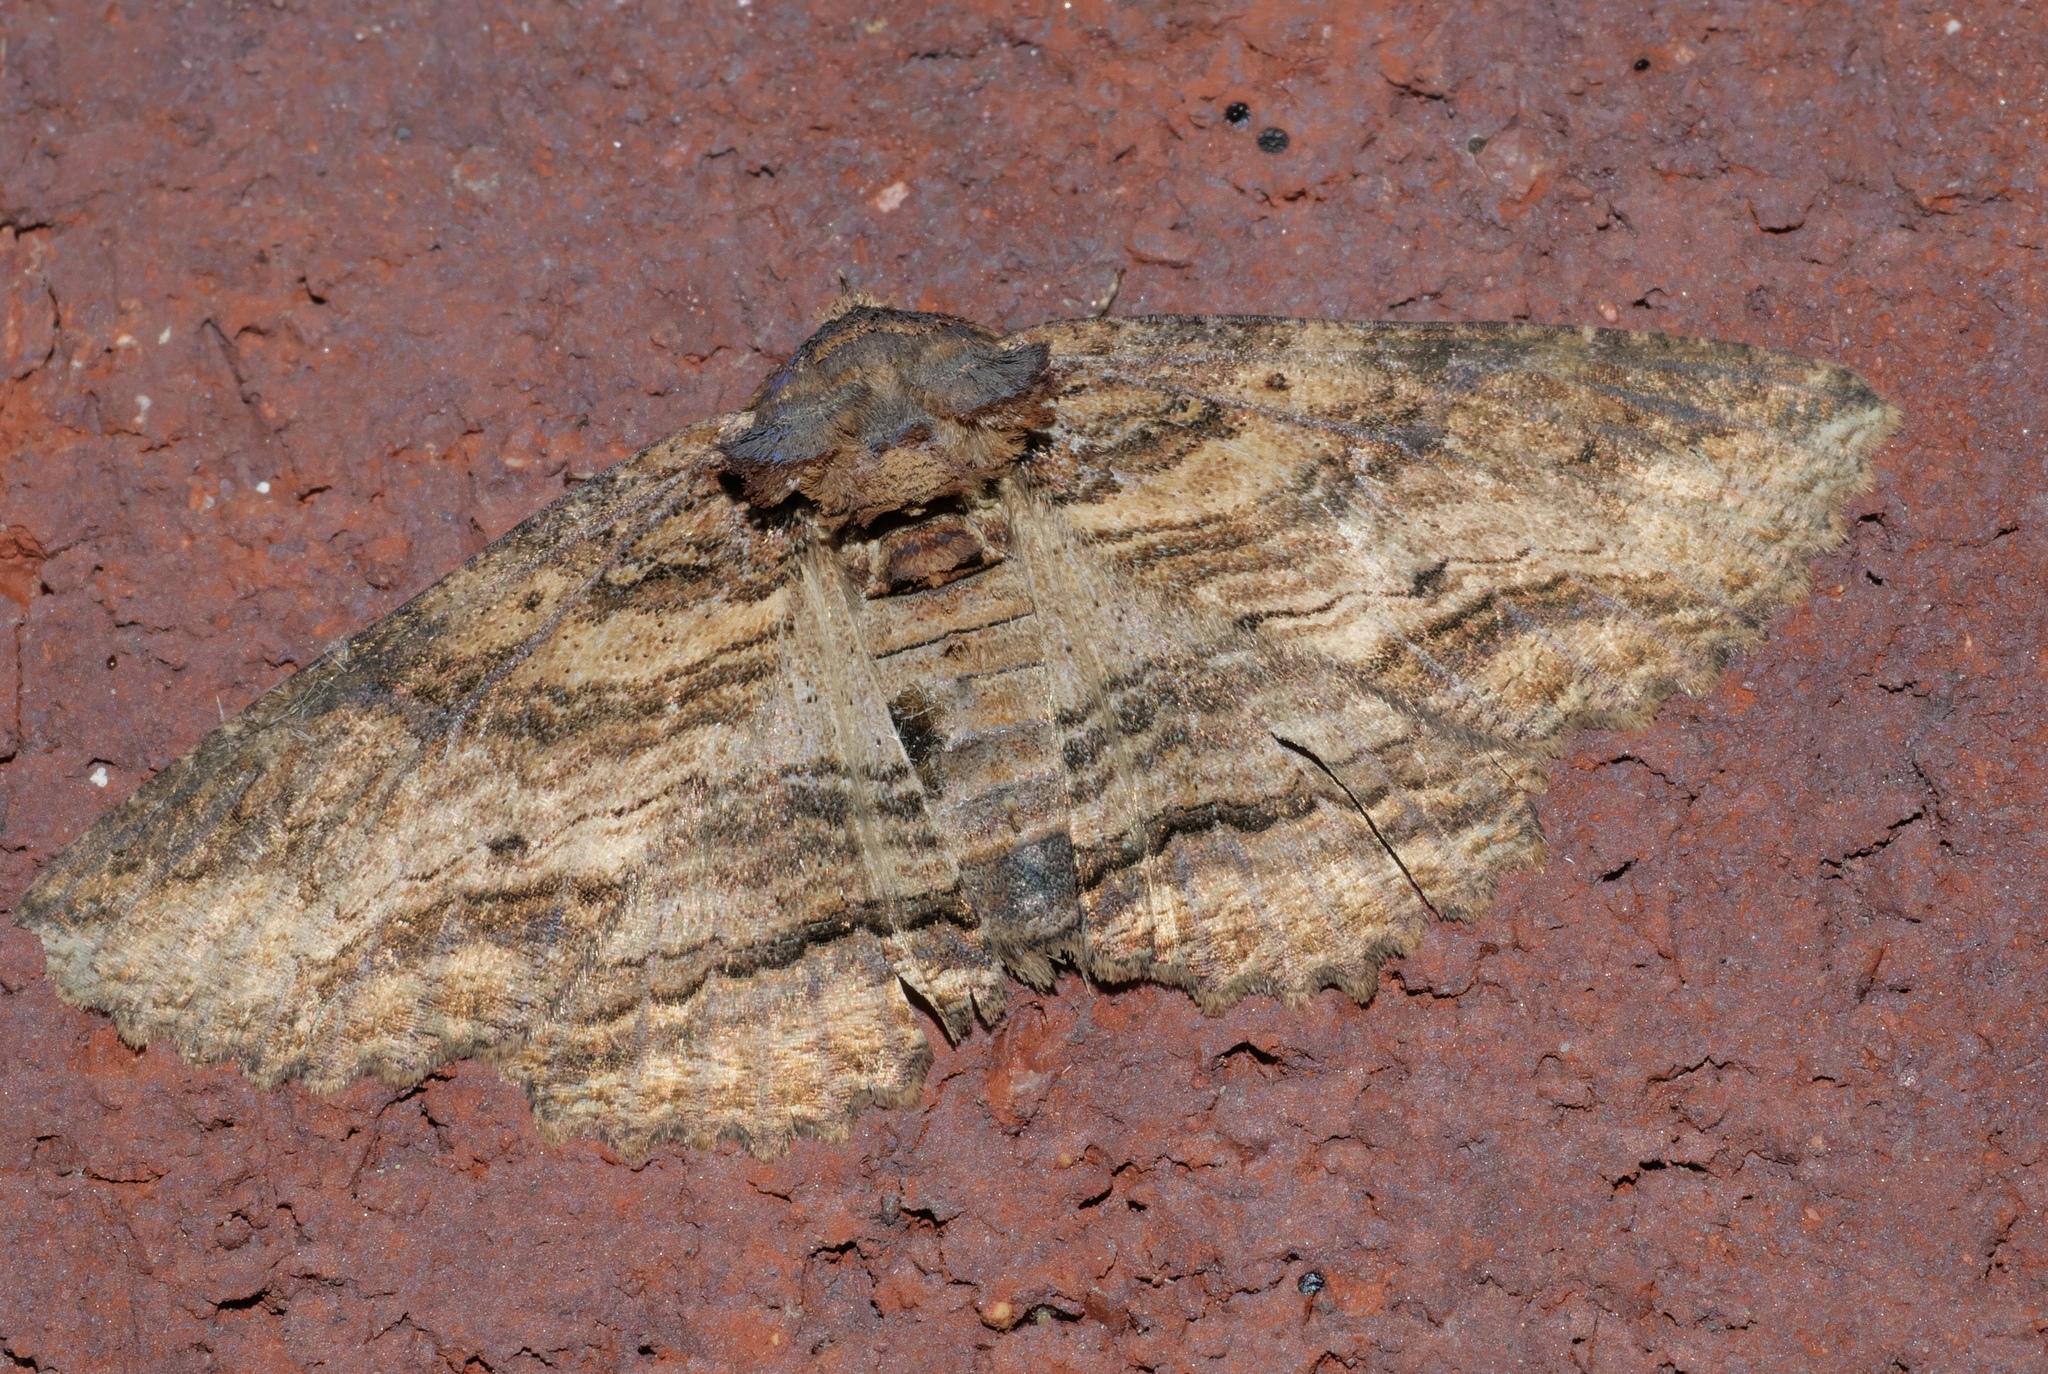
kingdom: Animalia
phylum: Arthropoda
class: Insecta
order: Lepidoptera
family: Erebidae
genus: Zale
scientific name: Zale lunata
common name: Lunate zale moth
